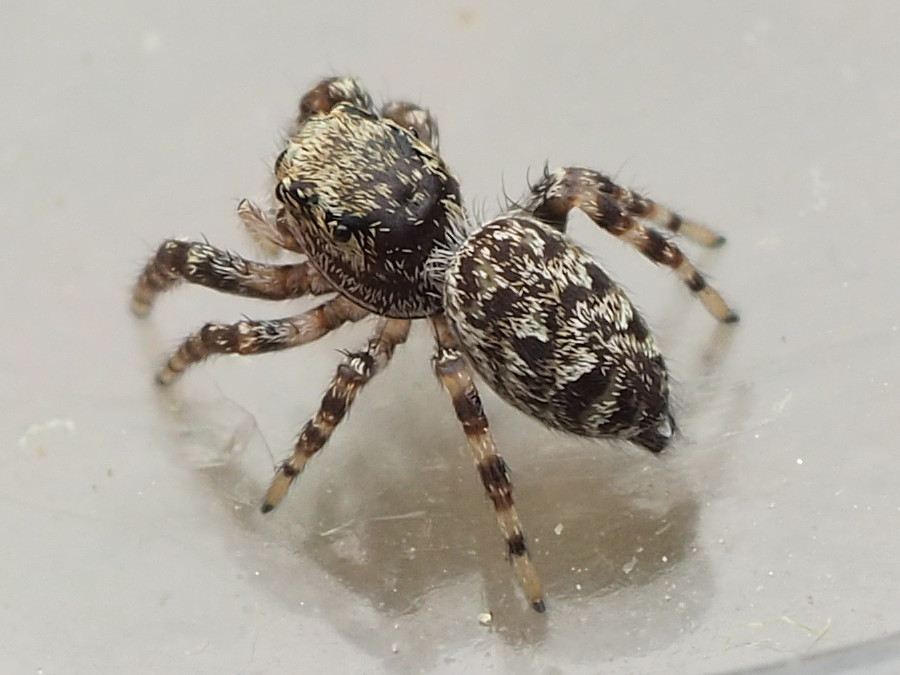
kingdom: Animalia
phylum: Arthropoda
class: Arachnida
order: Araneae
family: Salticidae
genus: Pelegrina
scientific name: Pelegrina galathea
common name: Jumping spiders
